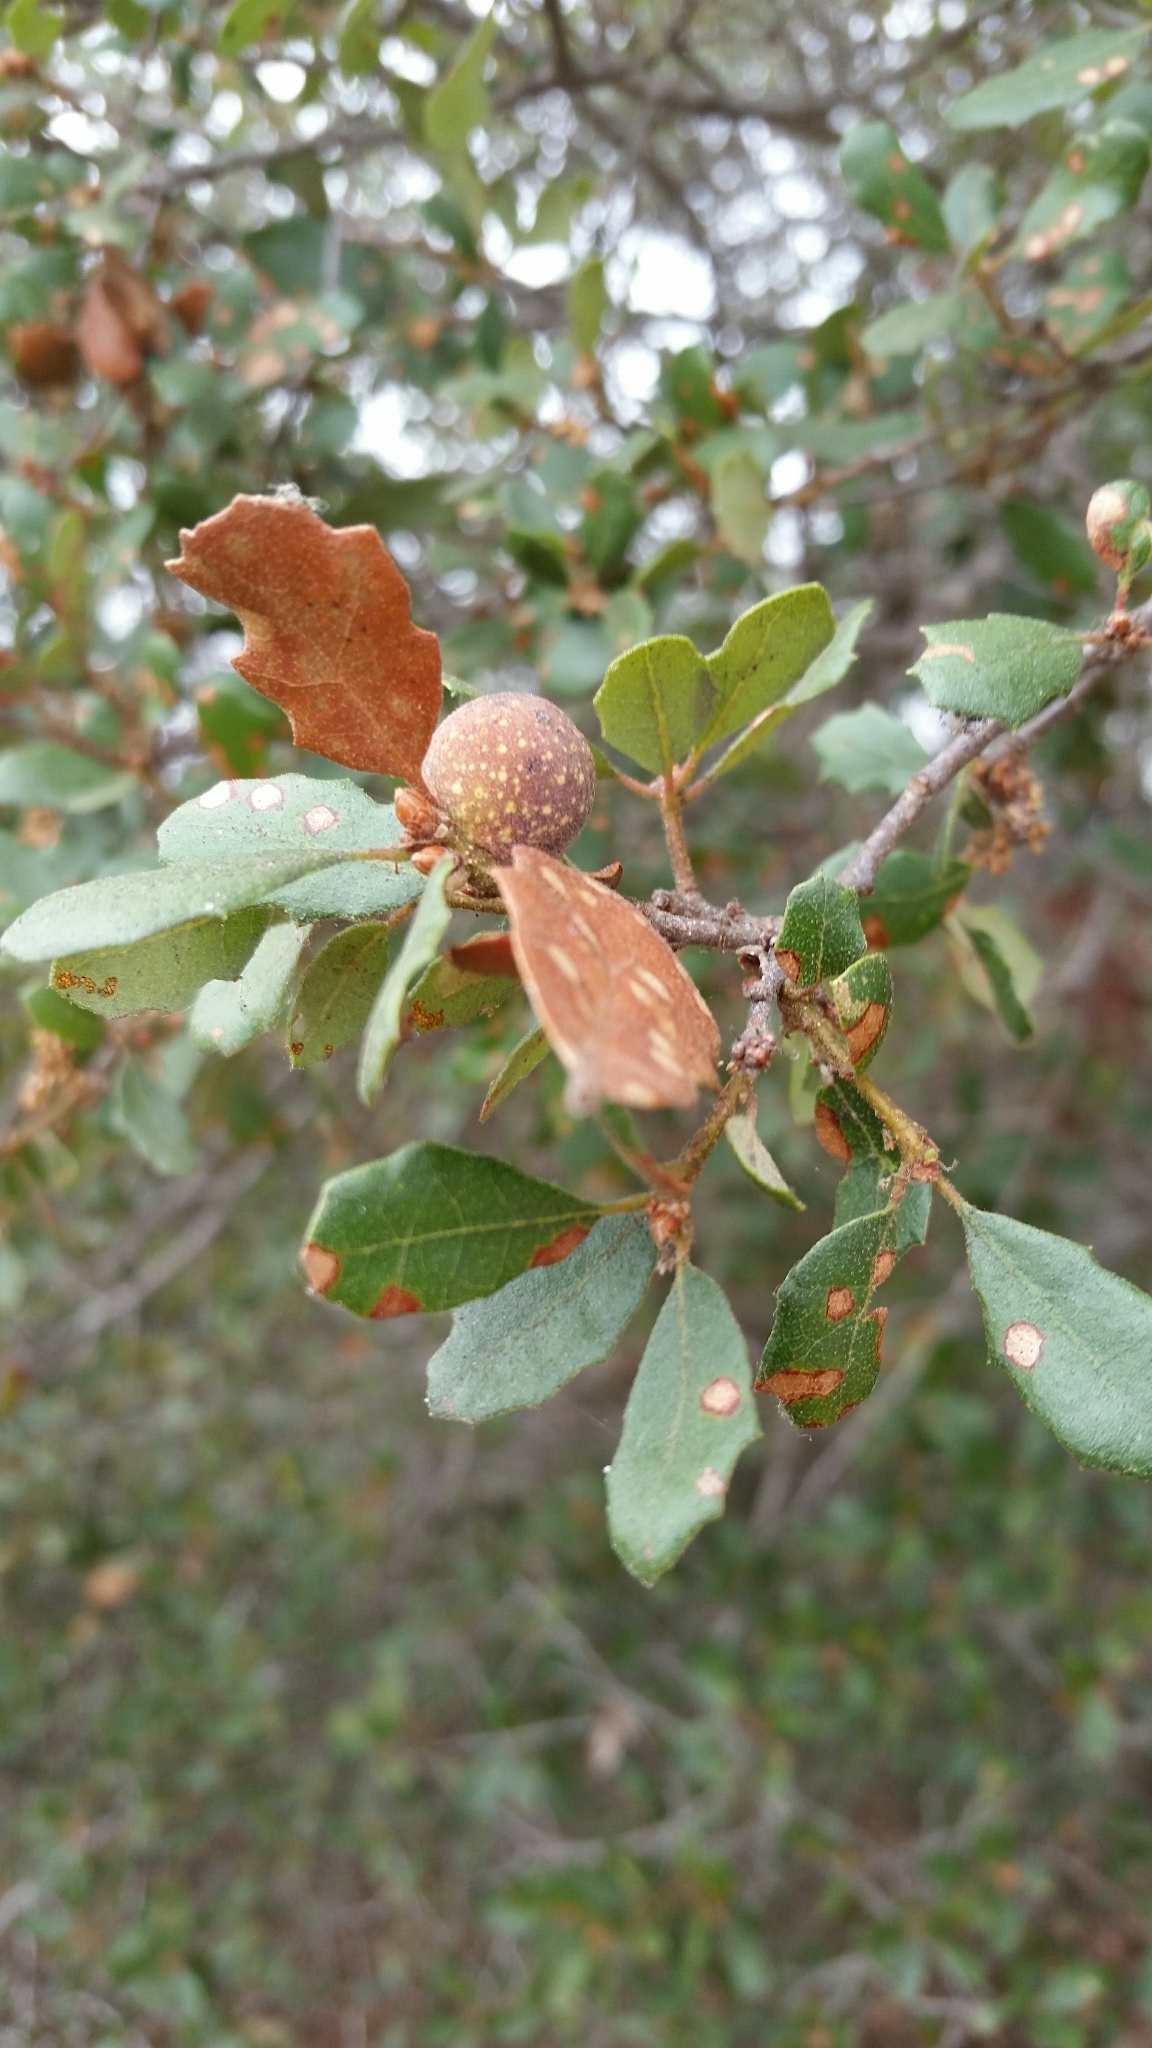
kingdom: Animalia
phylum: Arthropoda
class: Insecta
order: Hymenoptera
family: Cynipidae
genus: Burnettweldia
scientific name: Burnettweldia
